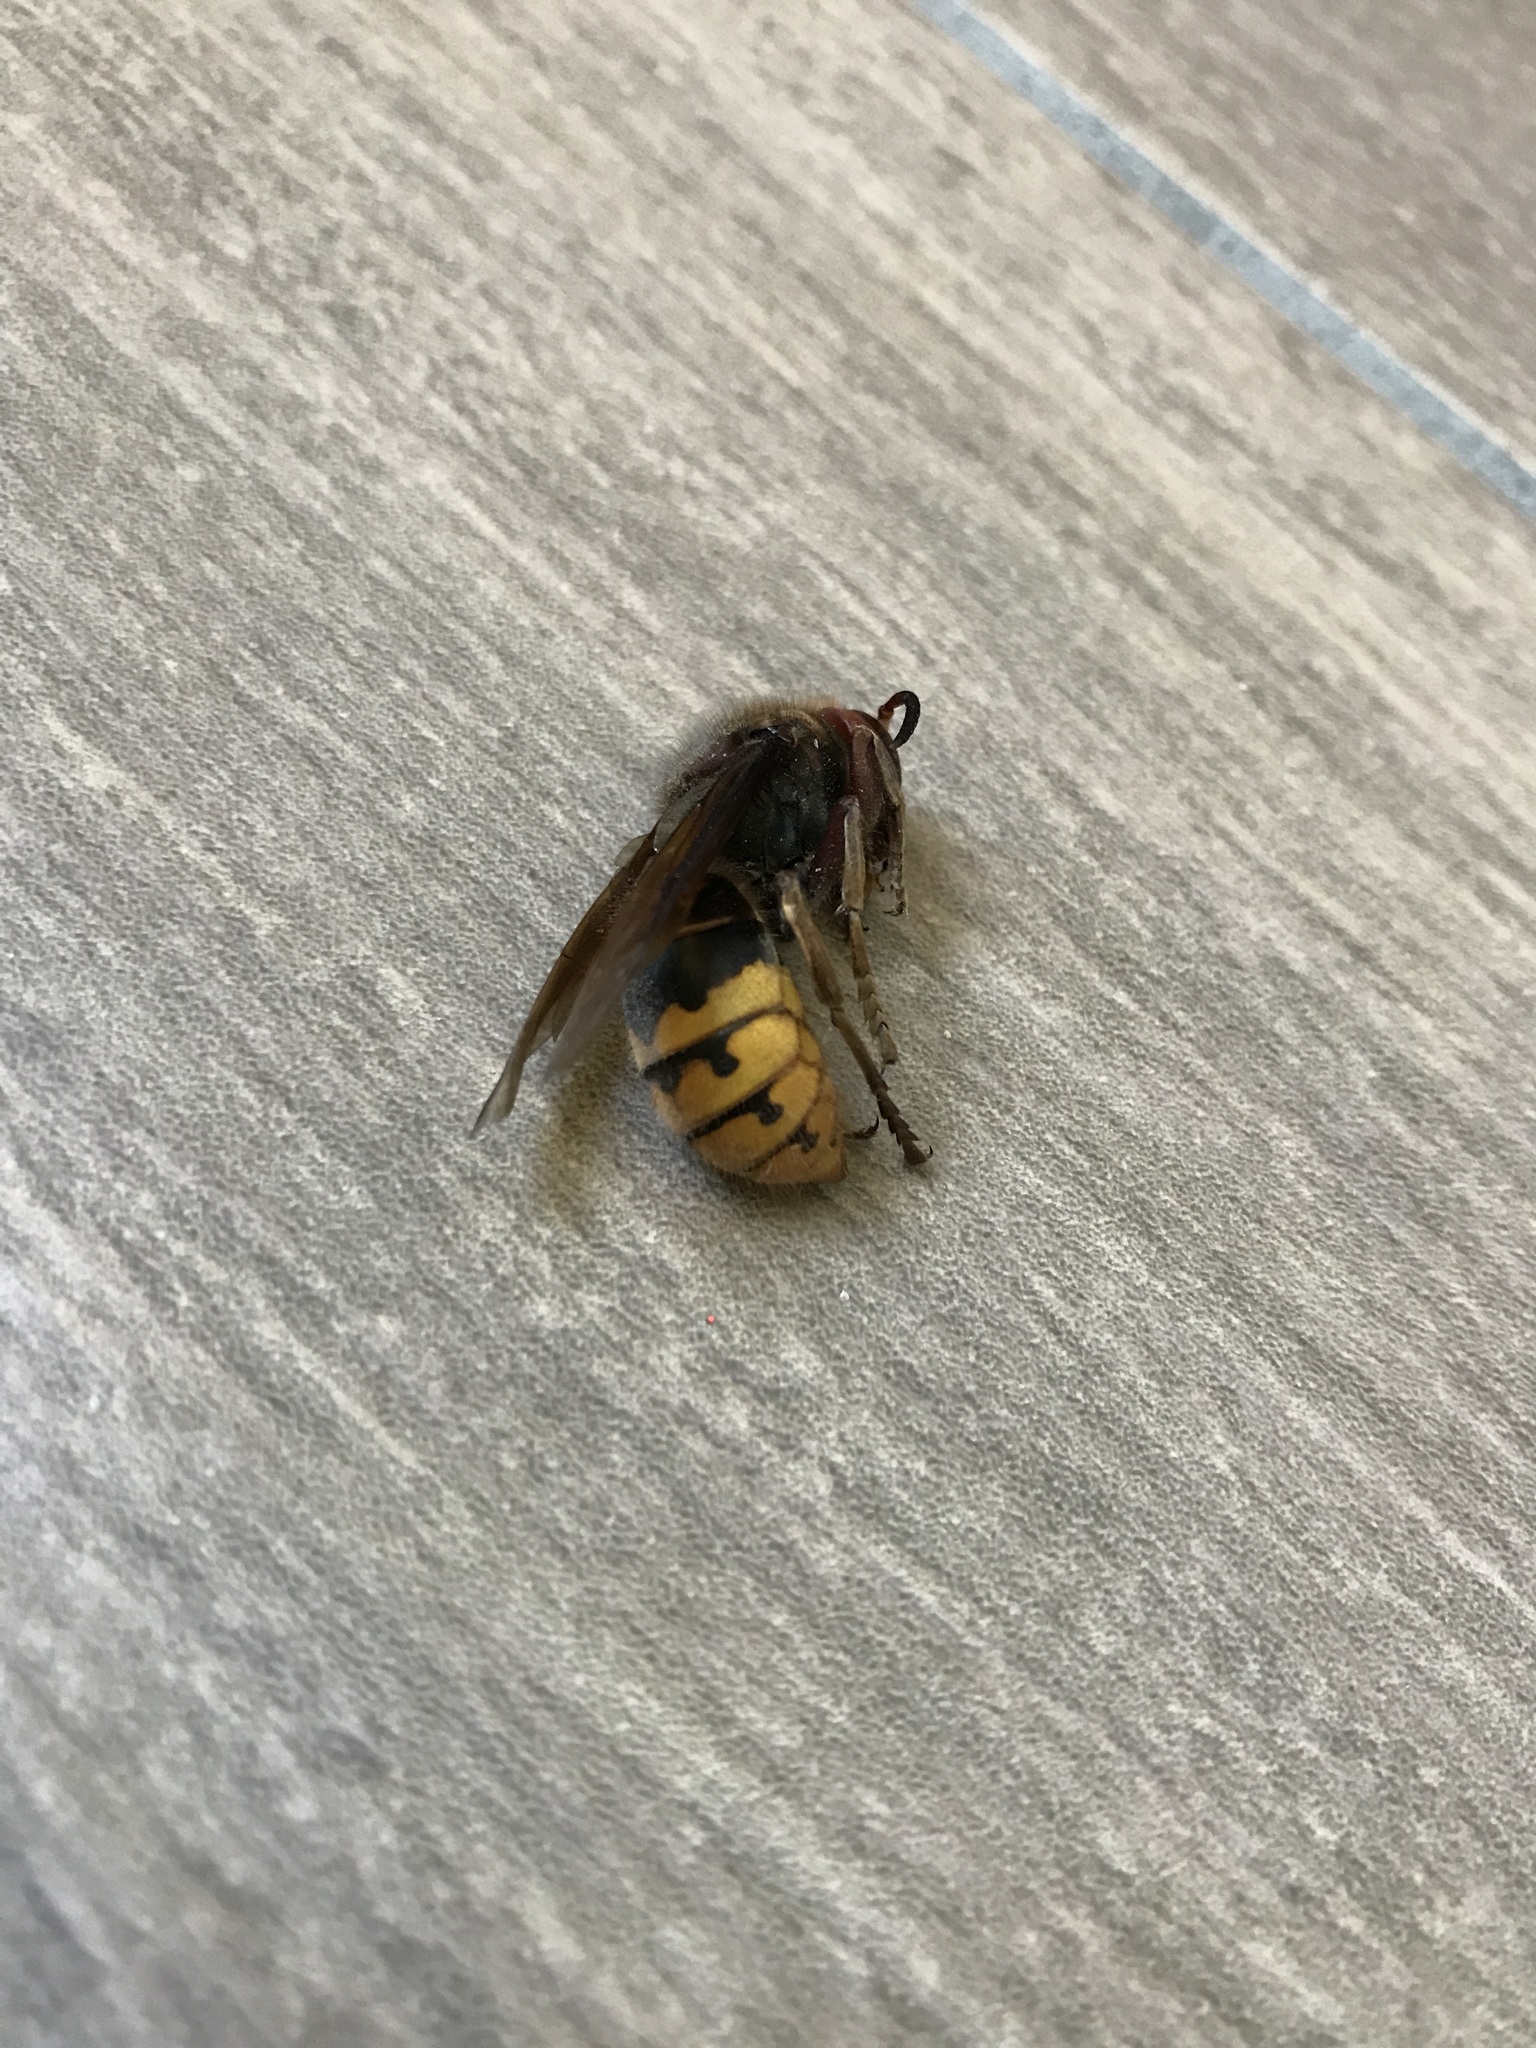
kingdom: Animalia
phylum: Arthropoda
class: Insecta
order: Hymenoptera
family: Vespidae
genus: Vespa
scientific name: Vespa crabro
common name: Hornet
